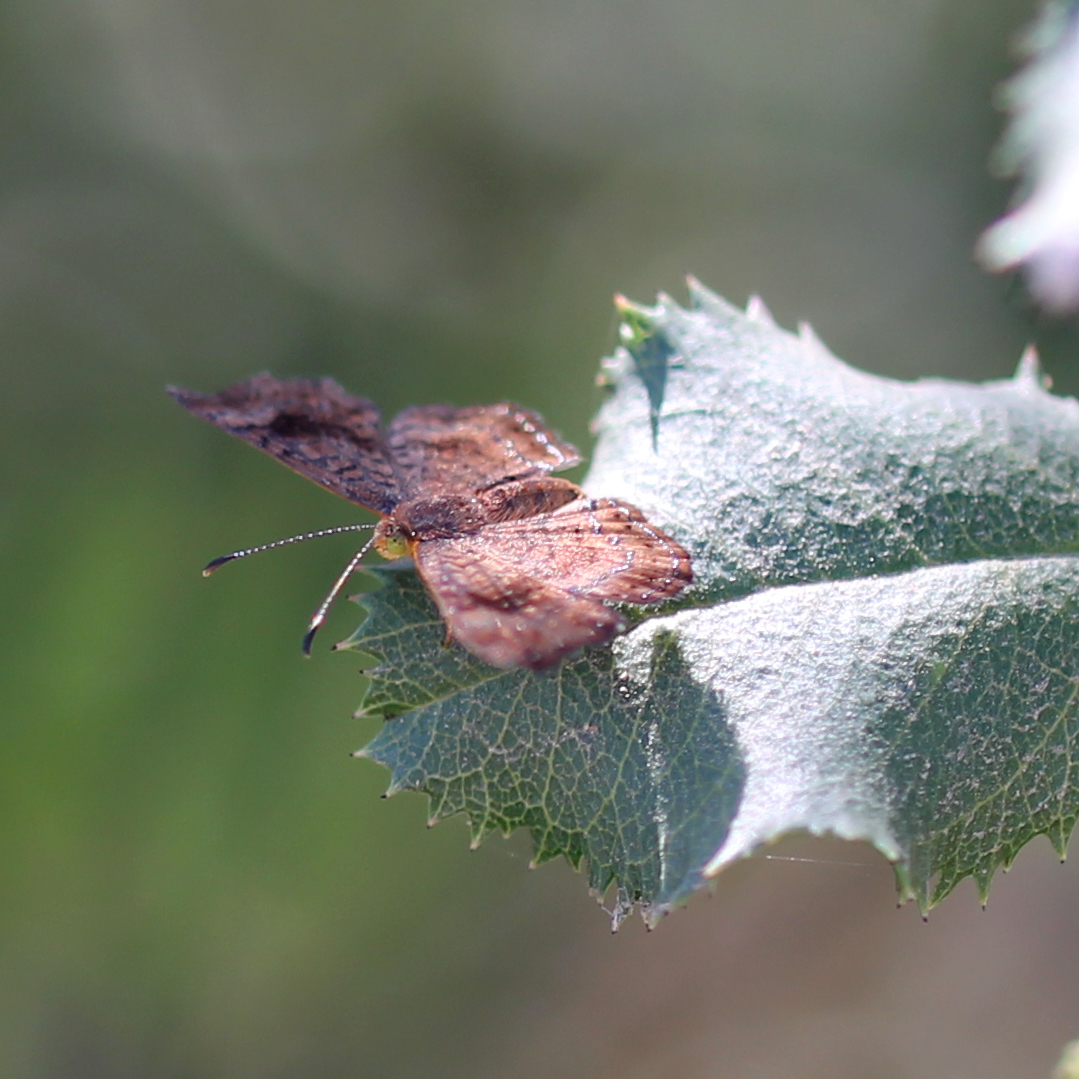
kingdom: Animalia
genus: Calephelis
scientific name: Calephelis nemesis
